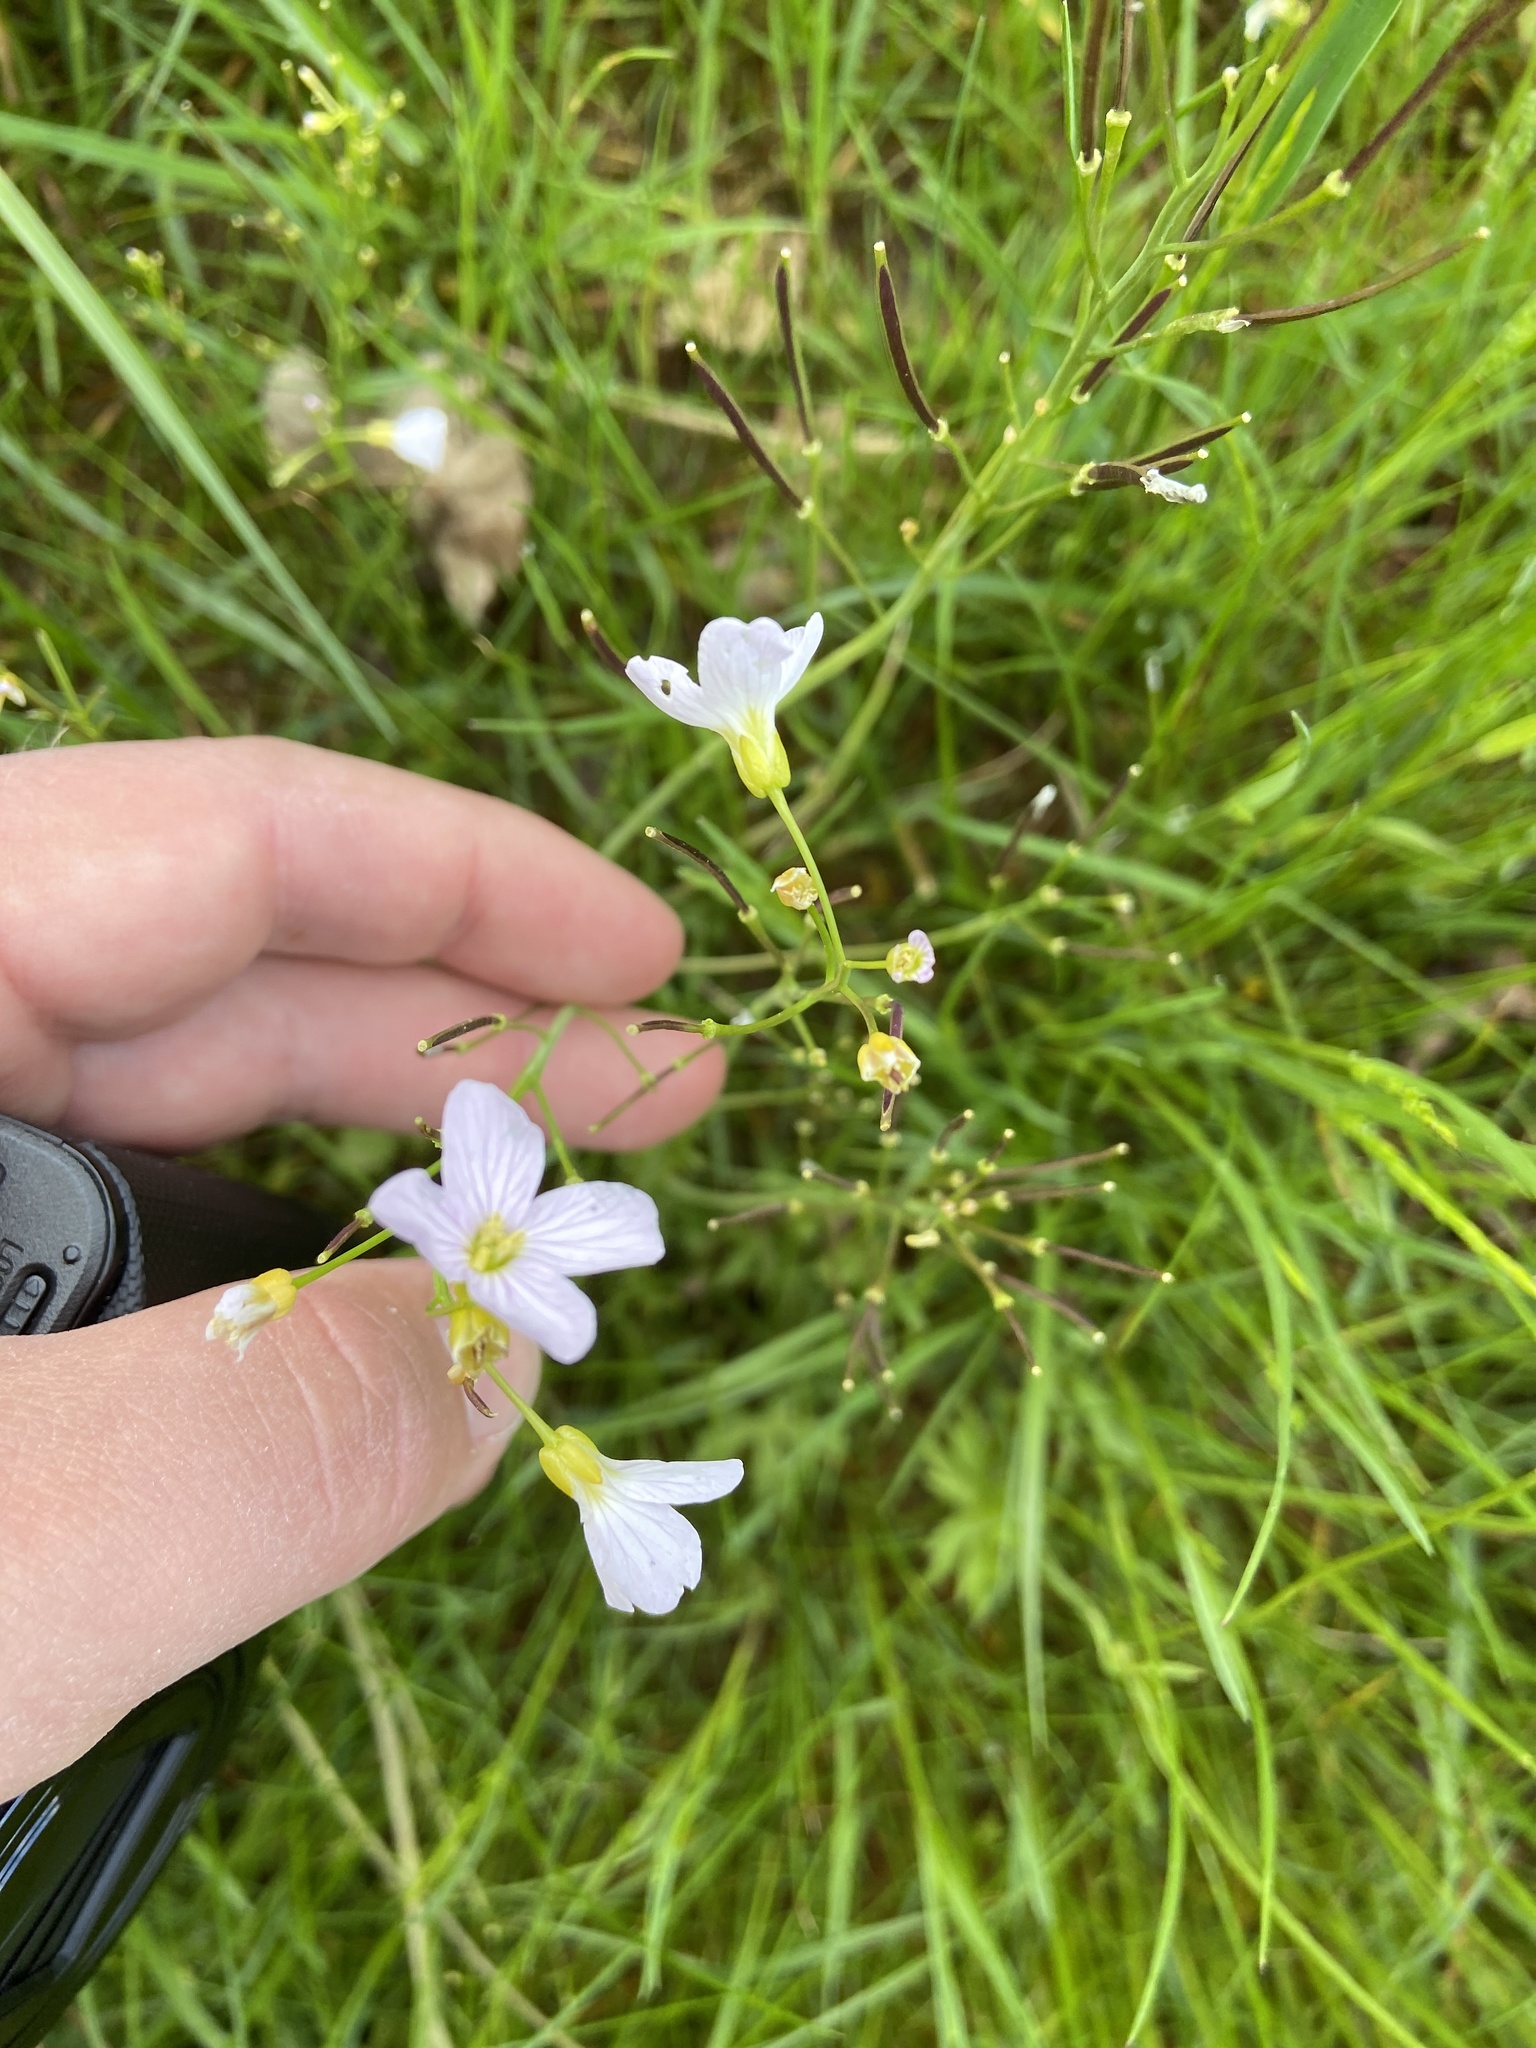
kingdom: Plantae
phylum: Tracheophyta
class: Magnoliopsida
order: Brassicales
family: Brassicaceae
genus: Cardamine
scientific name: Cardamine pratensis
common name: Cuckoo flower
